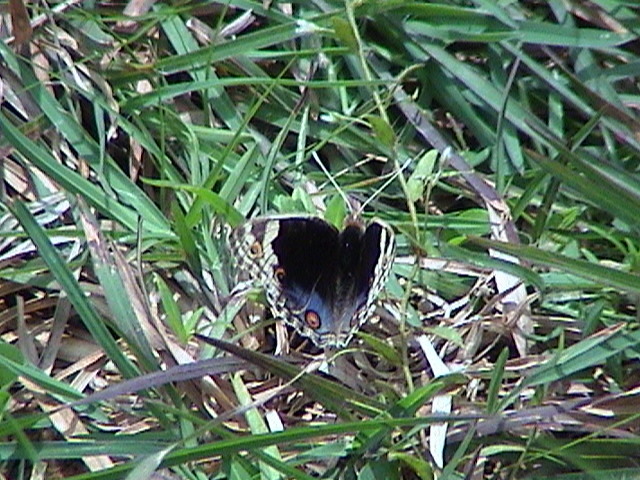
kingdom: Animalia
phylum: Arthropoda
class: Insecta
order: Lepidoptera
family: Nymphalidae
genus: Junonia
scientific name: Junonia orithya
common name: Blue pansy
